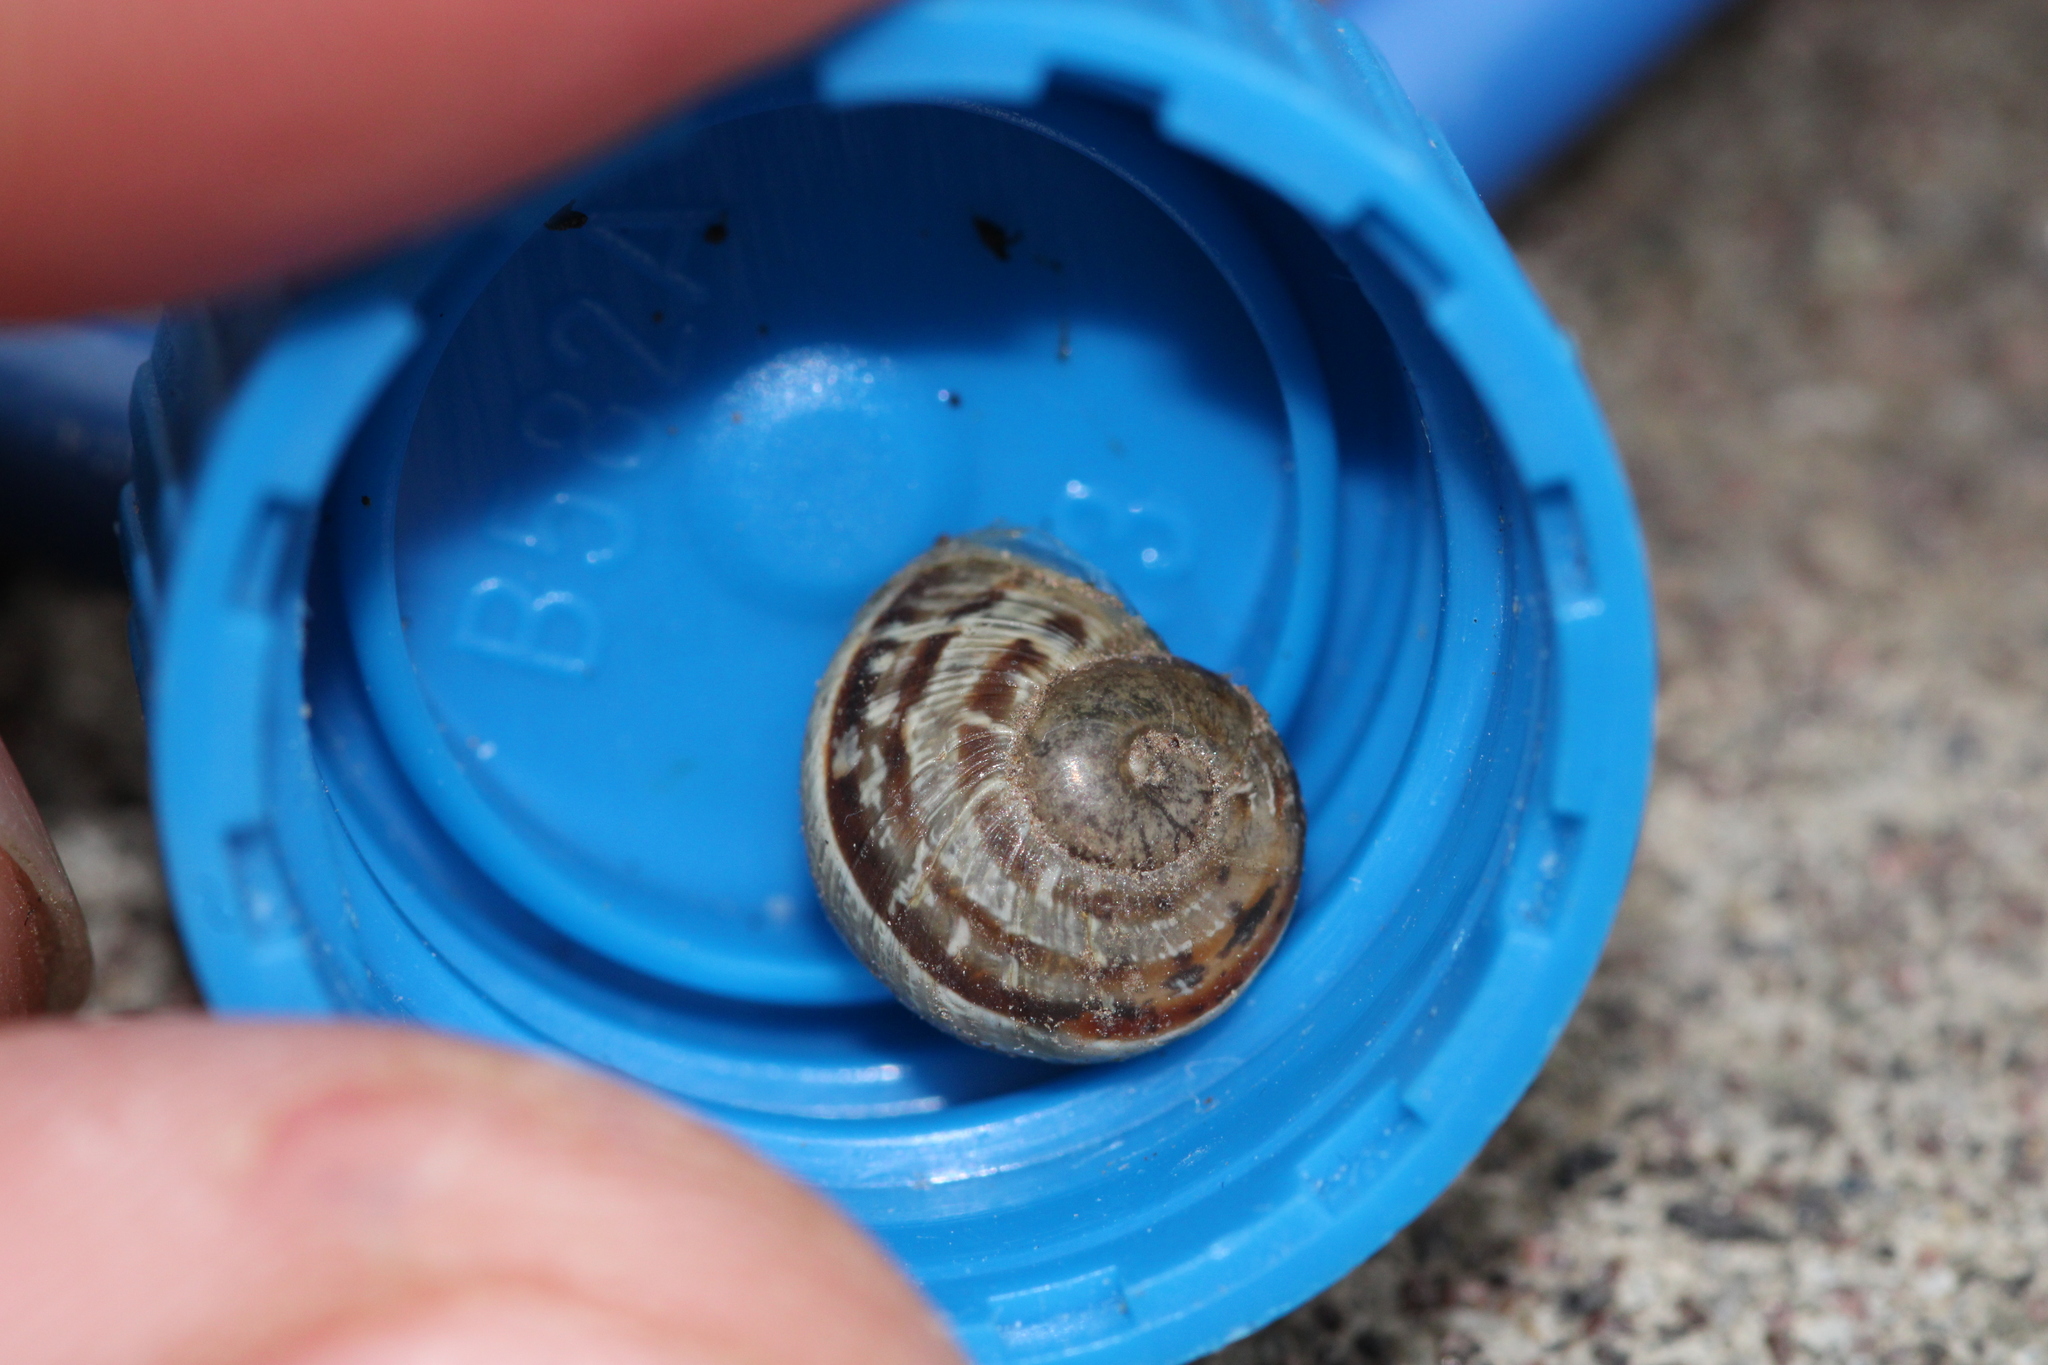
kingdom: Animalia
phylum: Mollusca
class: Gastropoda
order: Stylommatophora
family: Helicidae
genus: Cornu
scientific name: Cornu aspersum
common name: Brown garden snail
